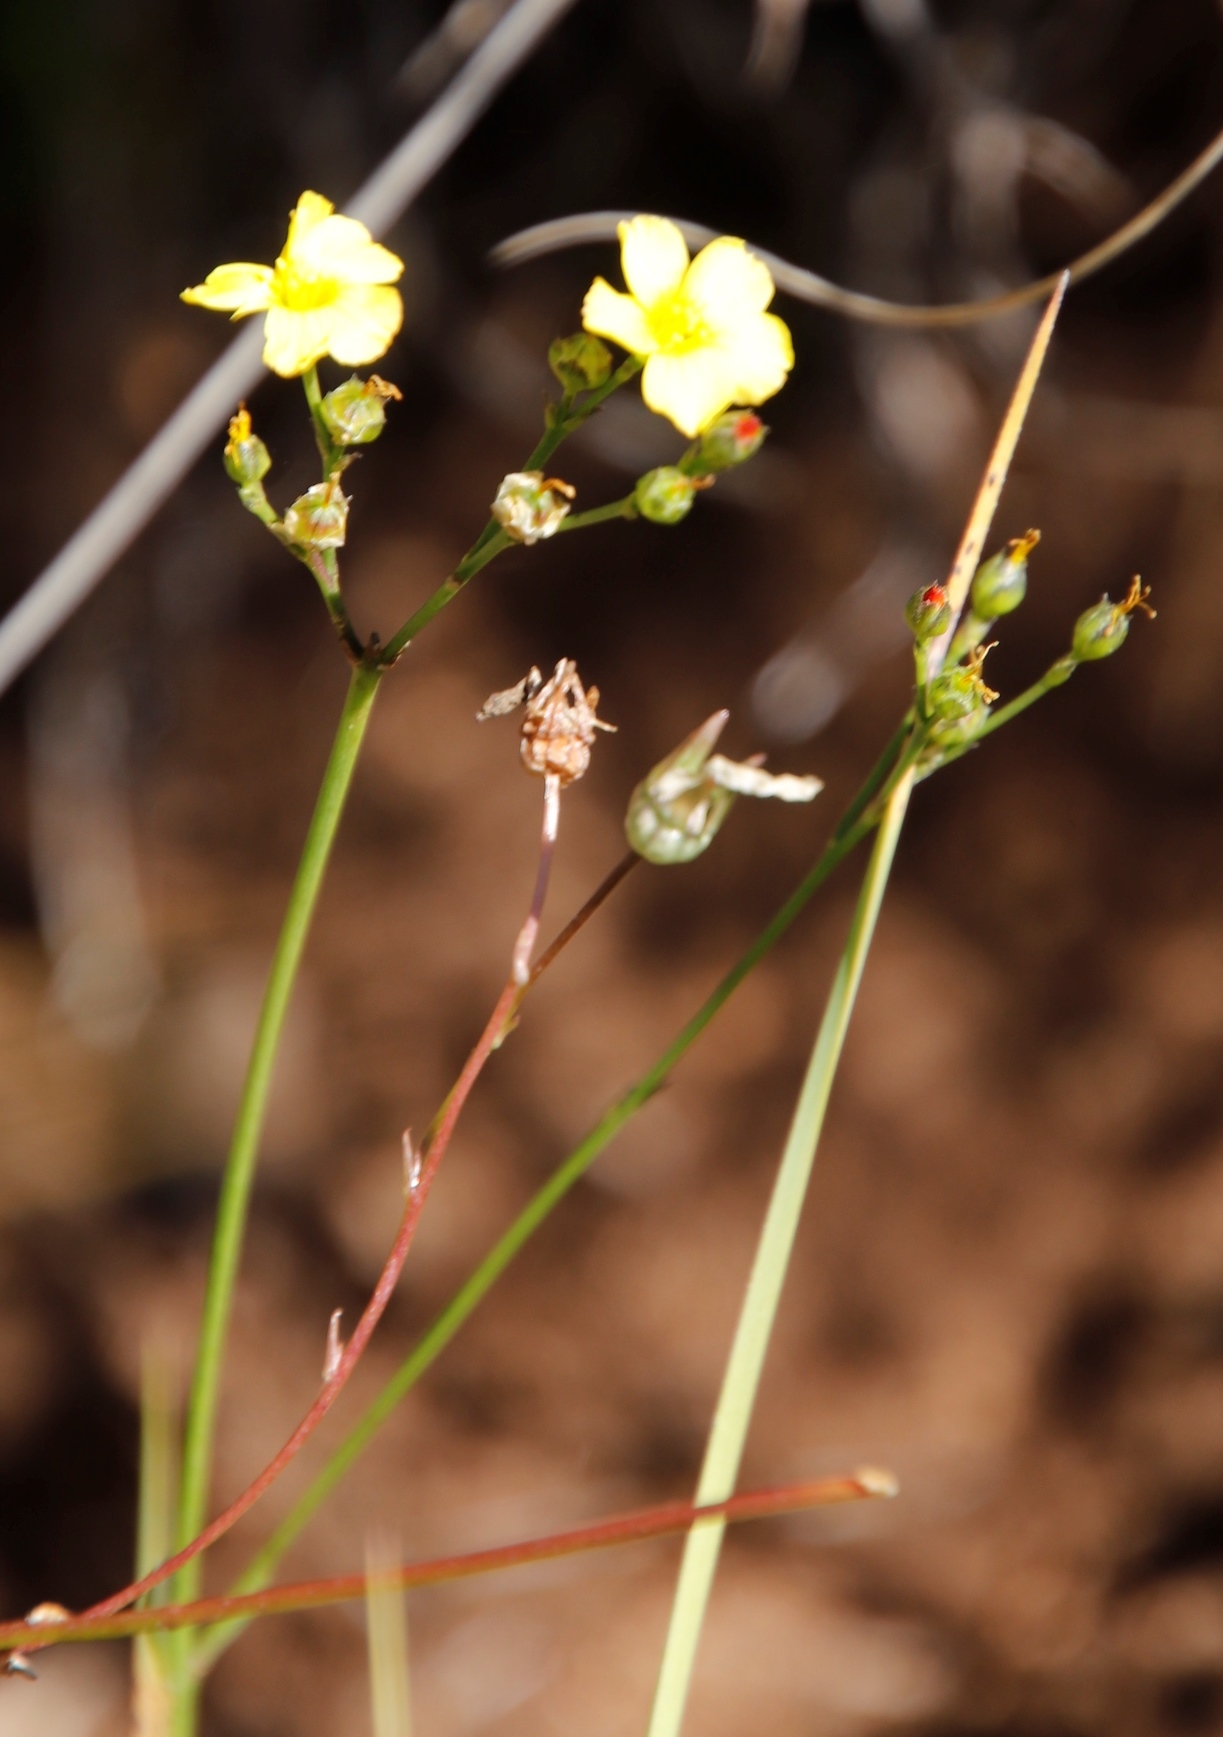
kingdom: Plantae
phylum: Tracheophyta
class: Magnoliopsida
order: Malpighiales
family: Linaceae
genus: Linum
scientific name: Linum thunbergii
